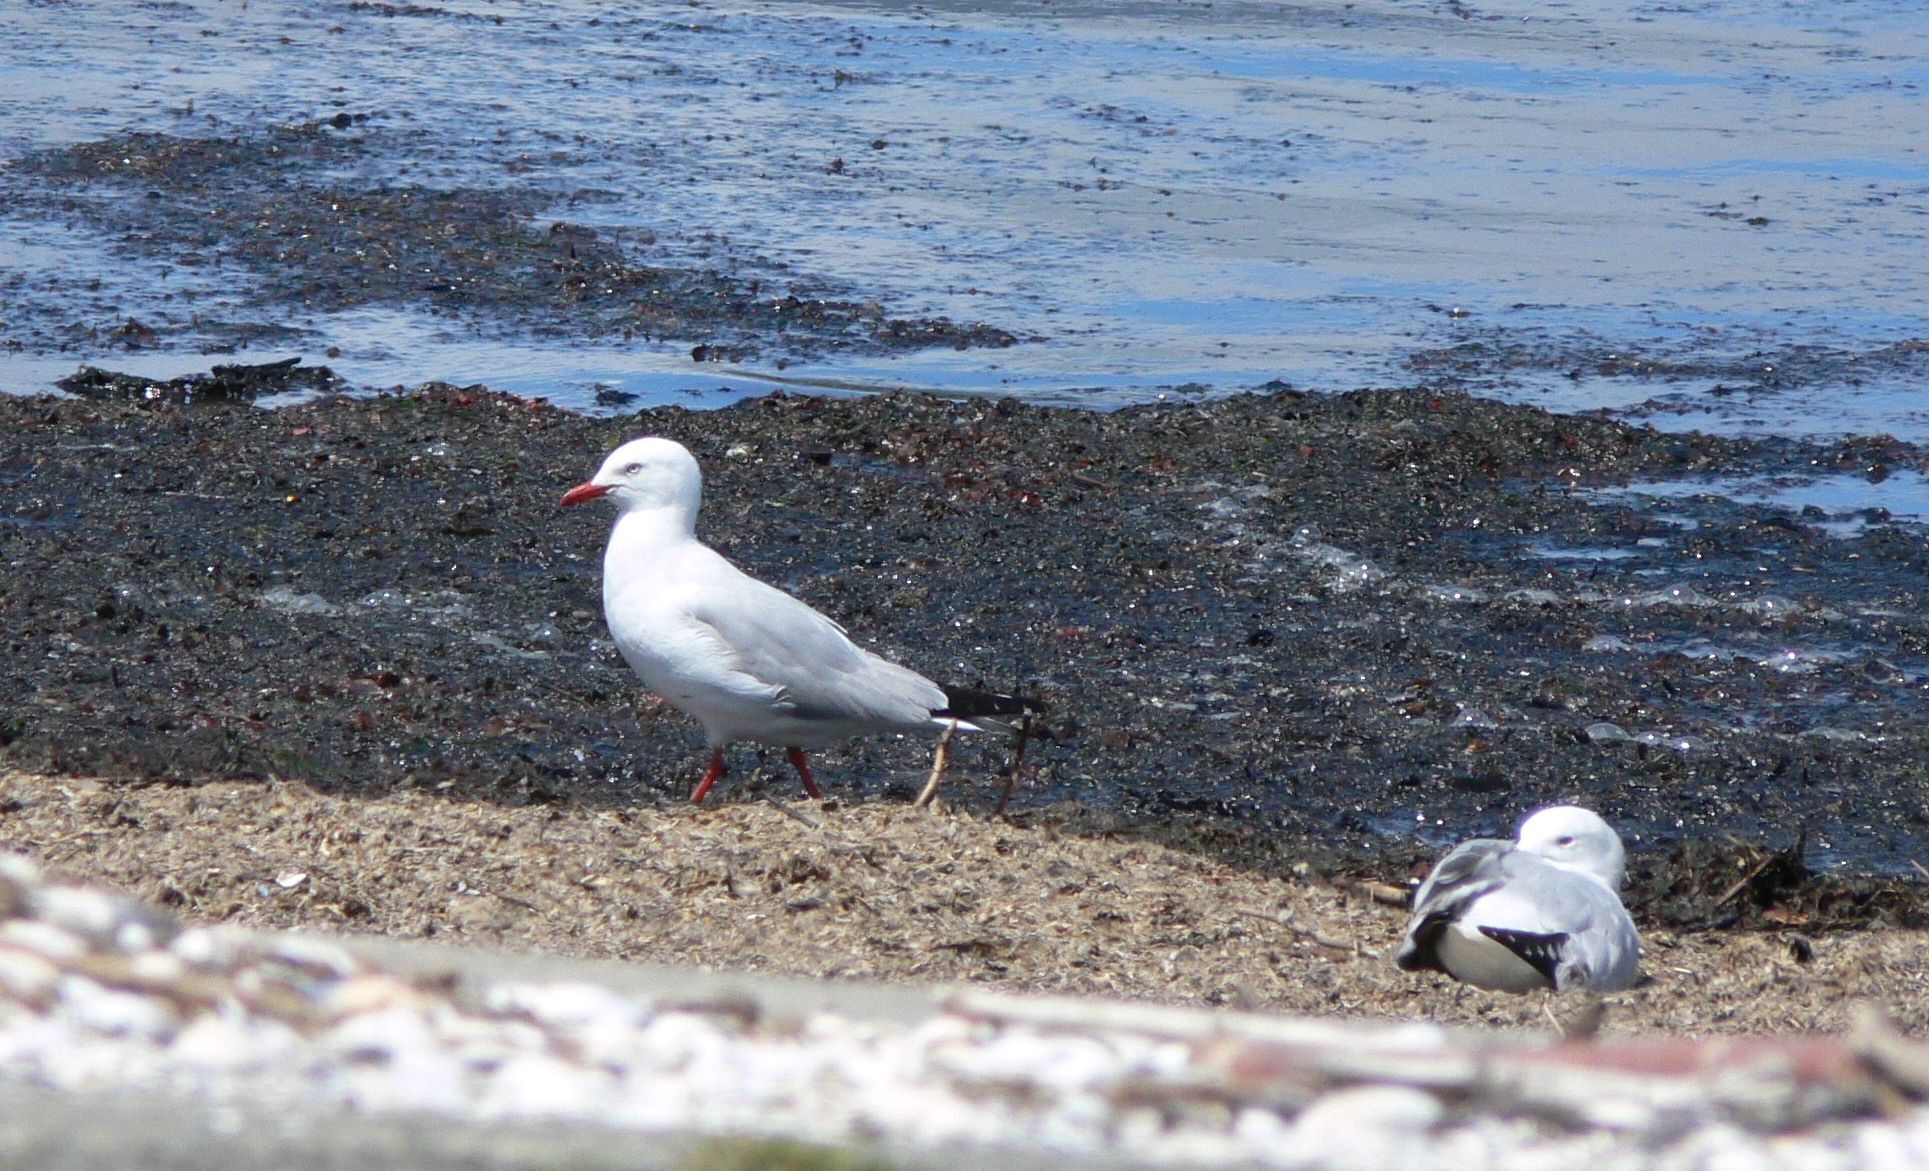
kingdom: Animalia
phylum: Chordata
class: Aves
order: Charadriiformes
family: Laridae
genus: Chroicocephalus
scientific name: Chroicocephalus novaehollandiae
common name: Silver gull
